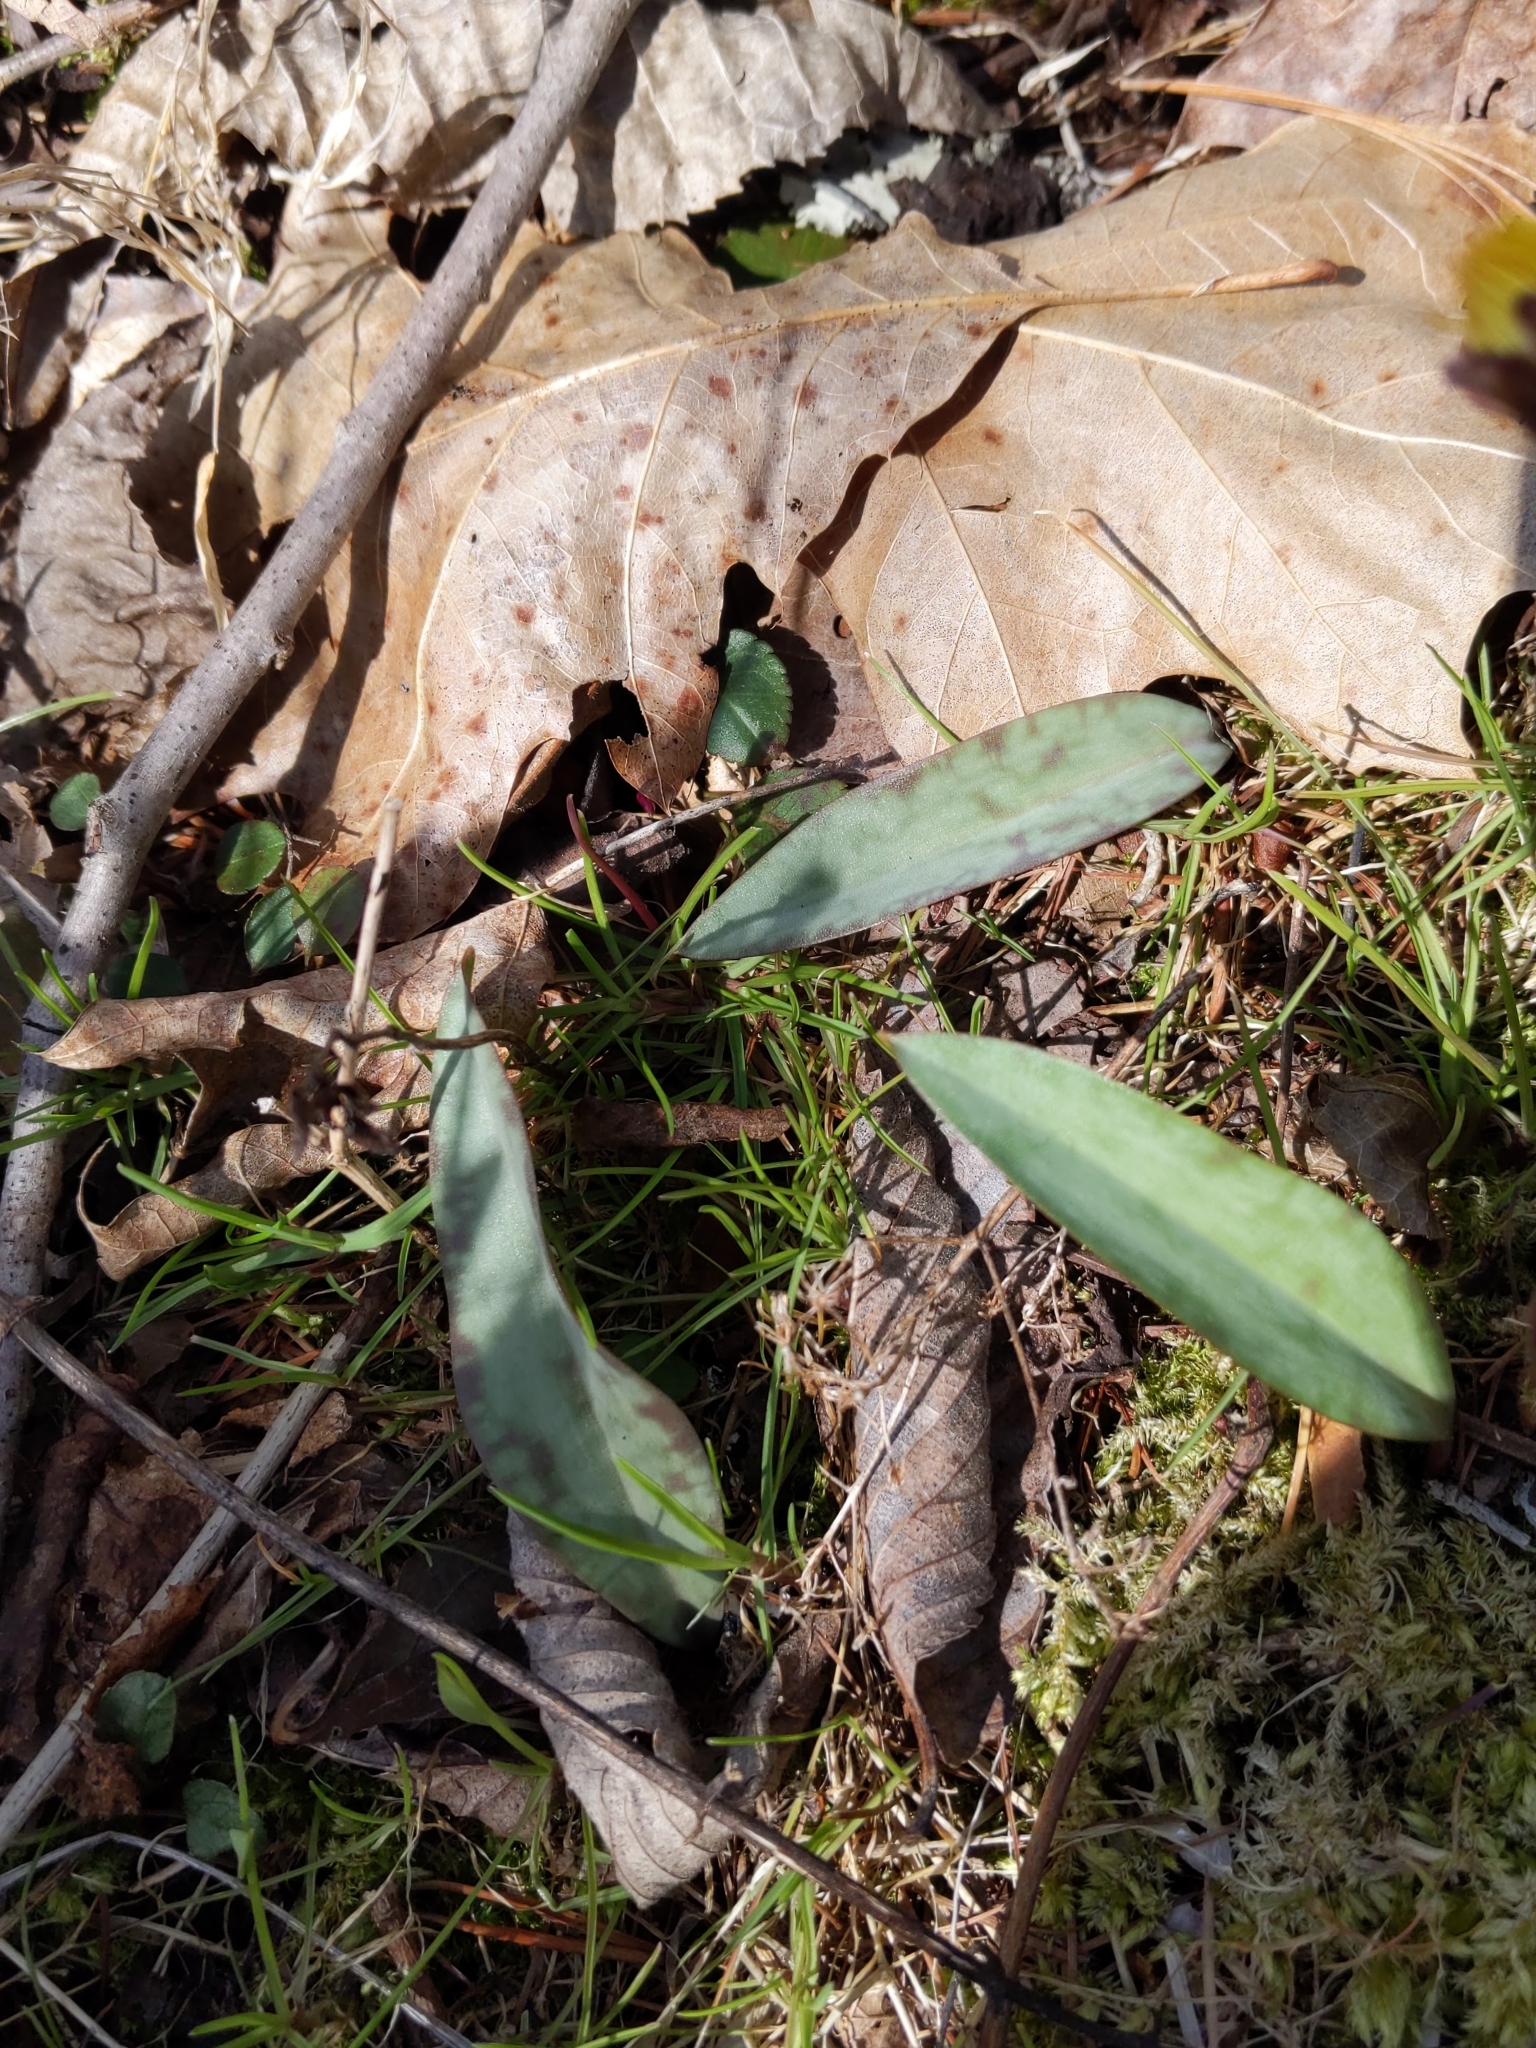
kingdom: Plantae
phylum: Tracheophyta
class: Liliopsida
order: Liliales
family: Liliaceae
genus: Erythronium
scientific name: Erythronium americanum
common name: Yellow adder's-tongue
